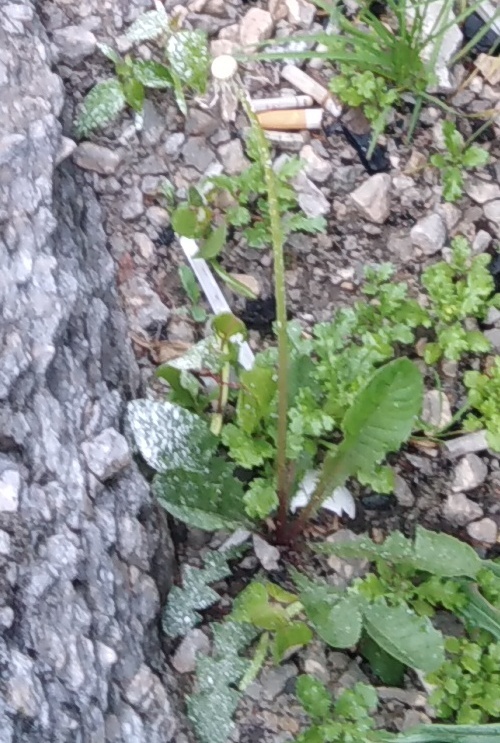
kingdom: Plantae
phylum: Tracheophyta
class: Magnoliopsida
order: Asterales
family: Asteraceae
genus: Taraxacum
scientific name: Taraxacum officinale
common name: Common dandelion
